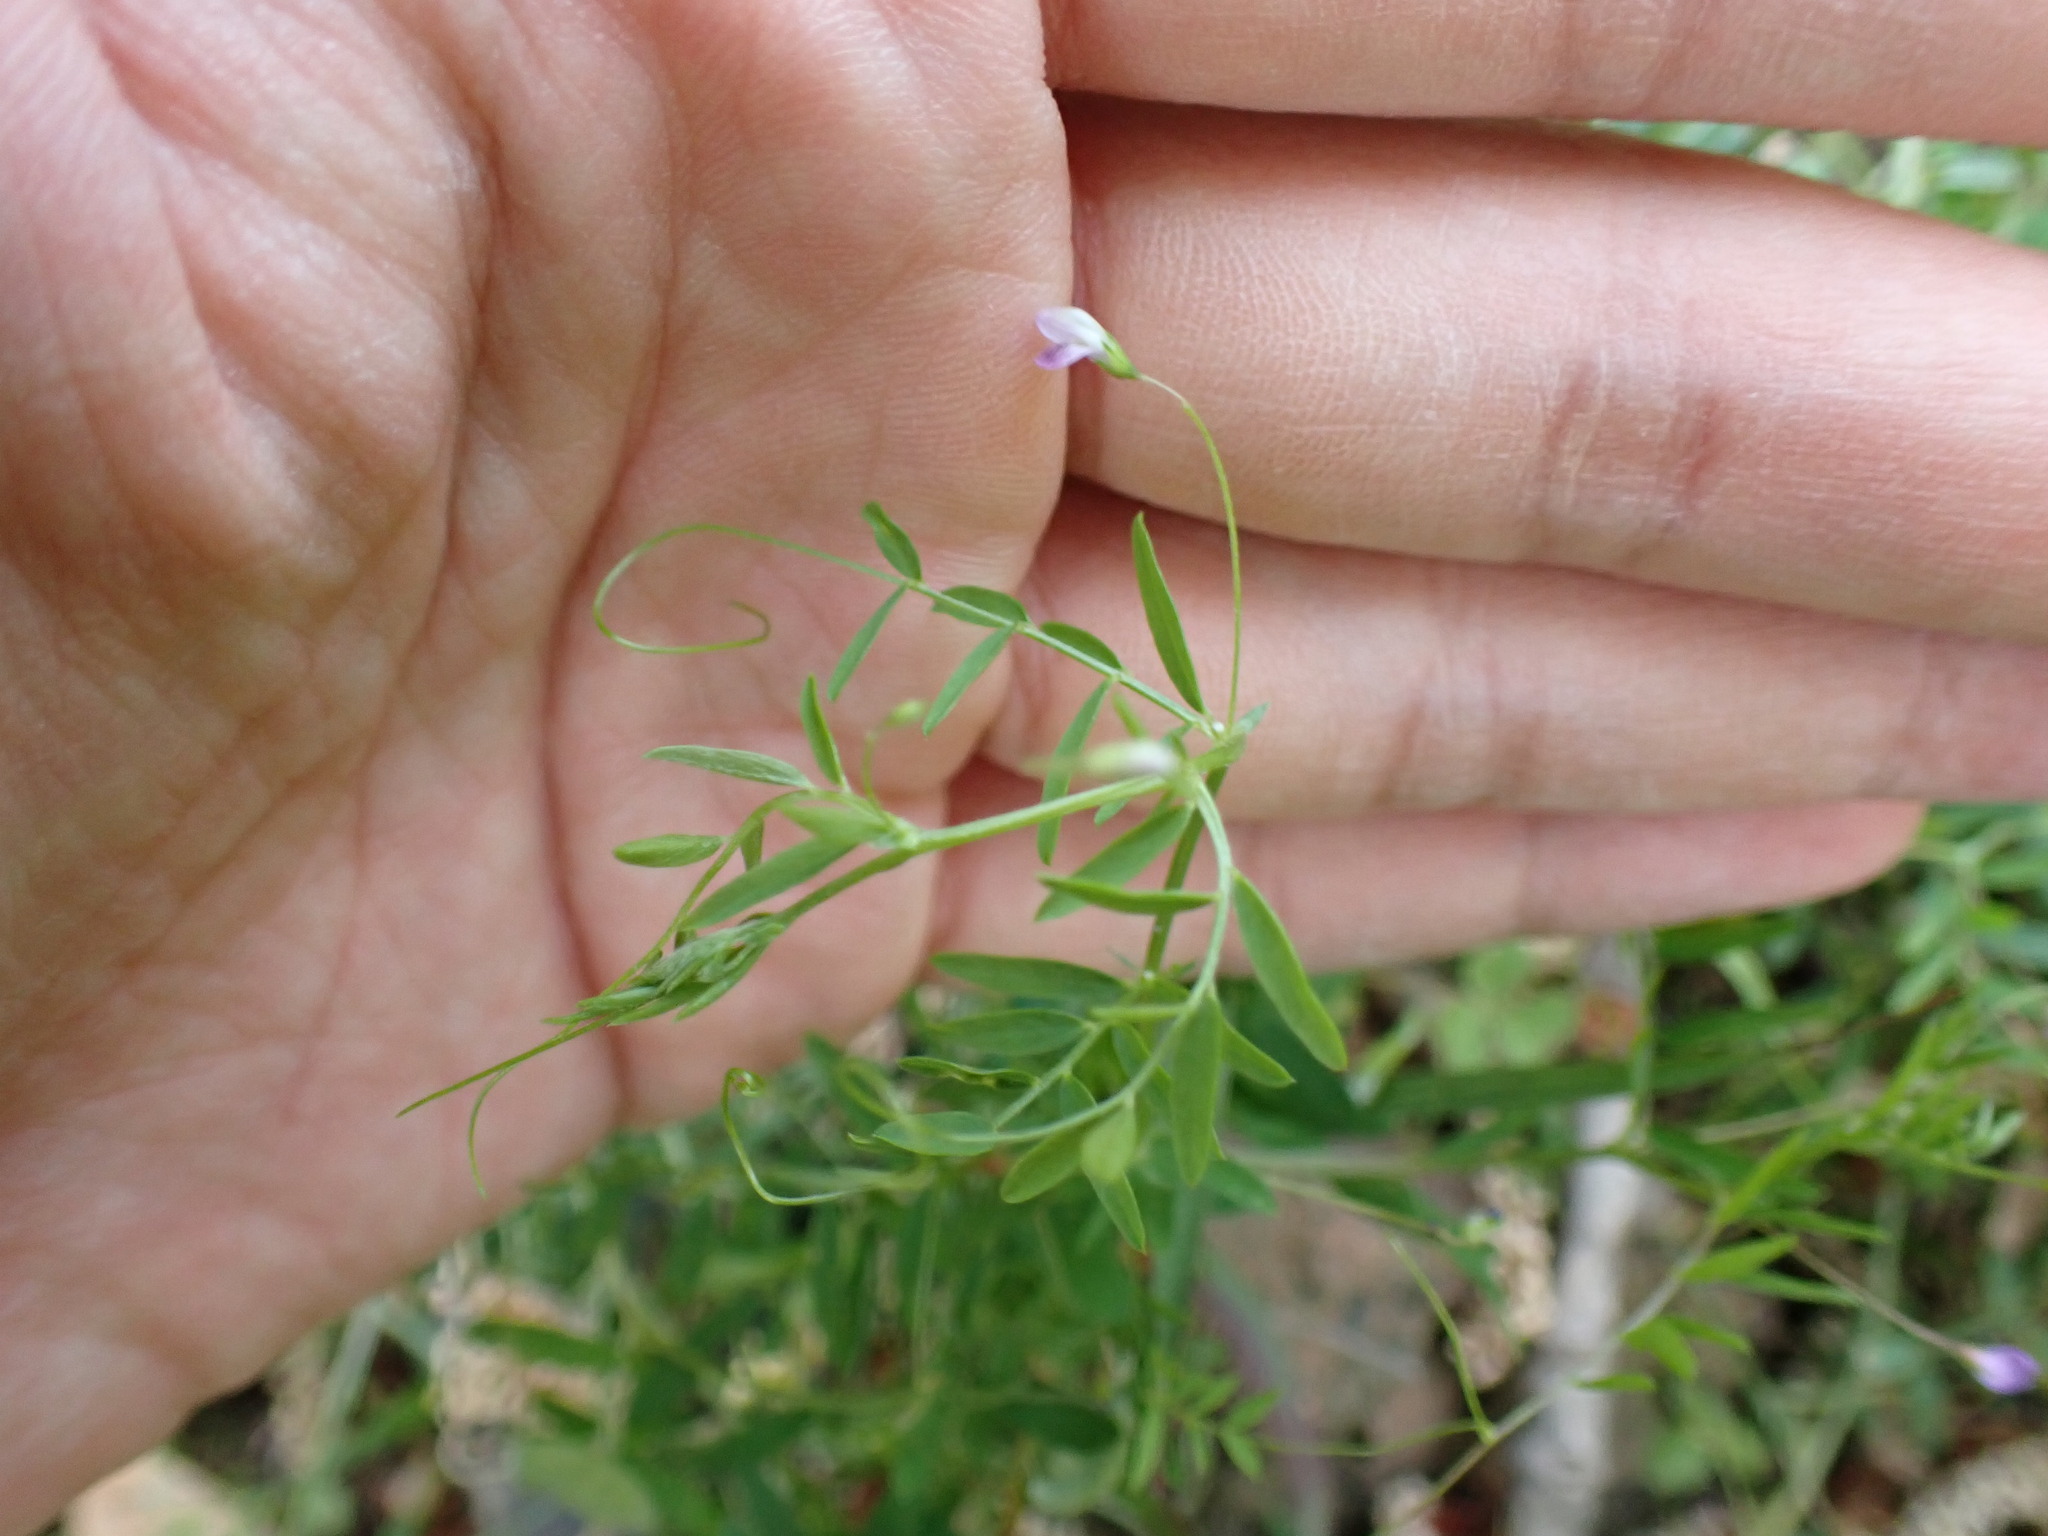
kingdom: Plantae
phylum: Tracheophyta
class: Magnoliopsida
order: Fabales
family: Fabaceae
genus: Vicia
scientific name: Vicia tetrasperma
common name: Smooth tare
